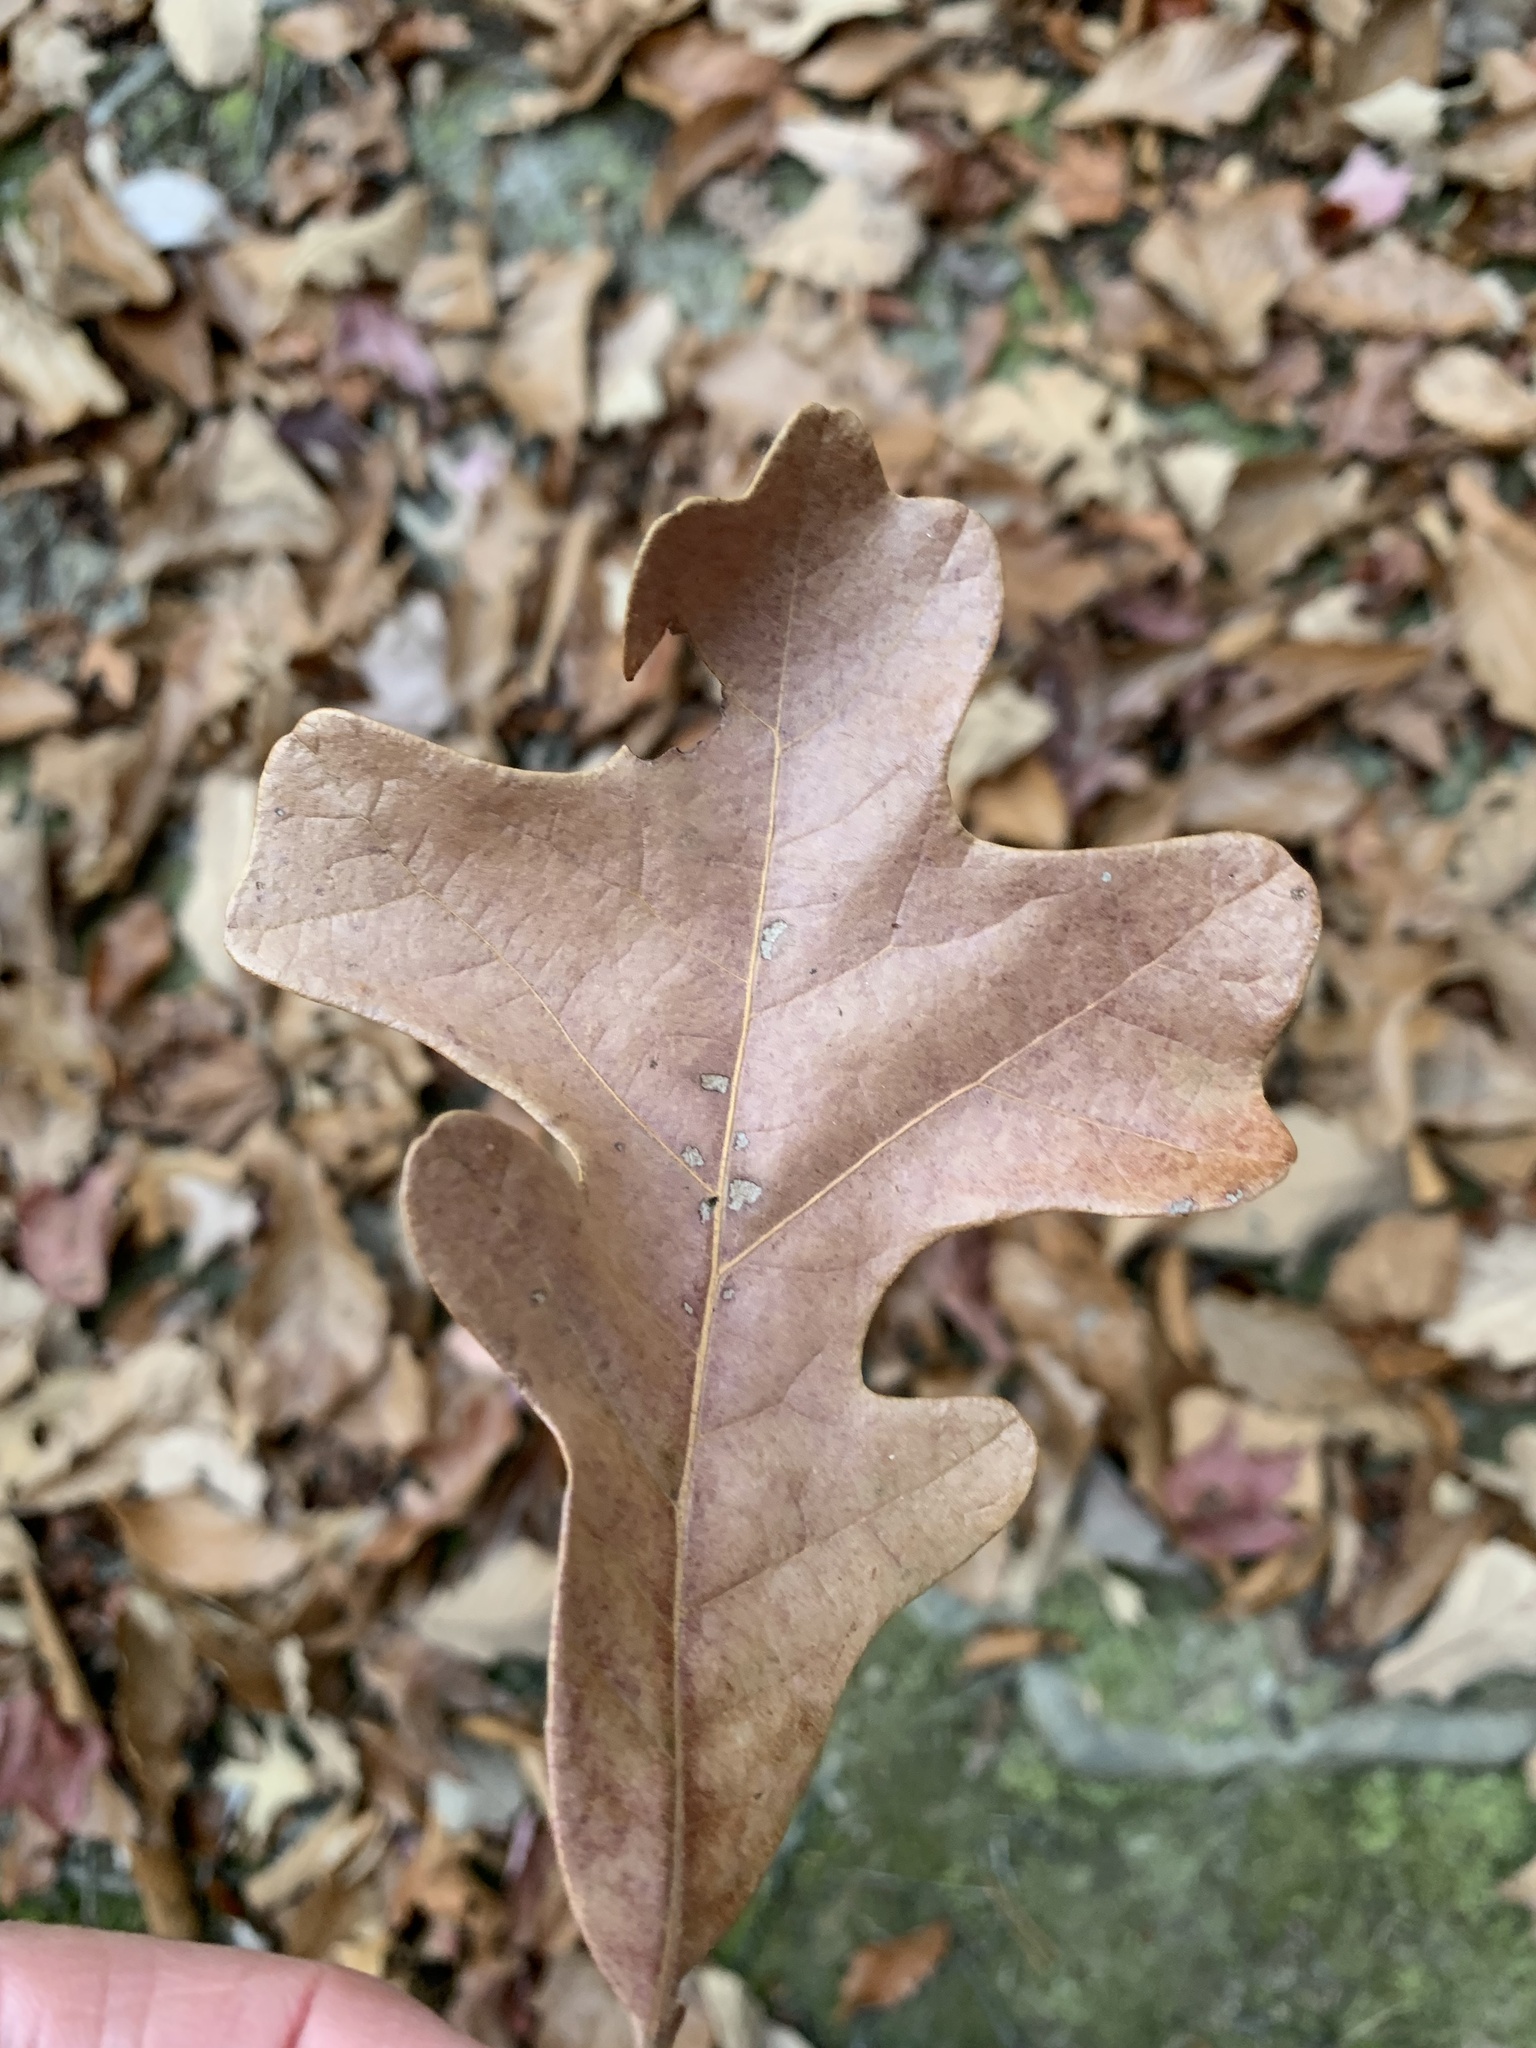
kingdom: Plantae
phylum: Tracheophyta
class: Magnoliopsida
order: Fagales
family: Fagaceae
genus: Quercus
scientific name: Quercus stellata
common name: Post oak
